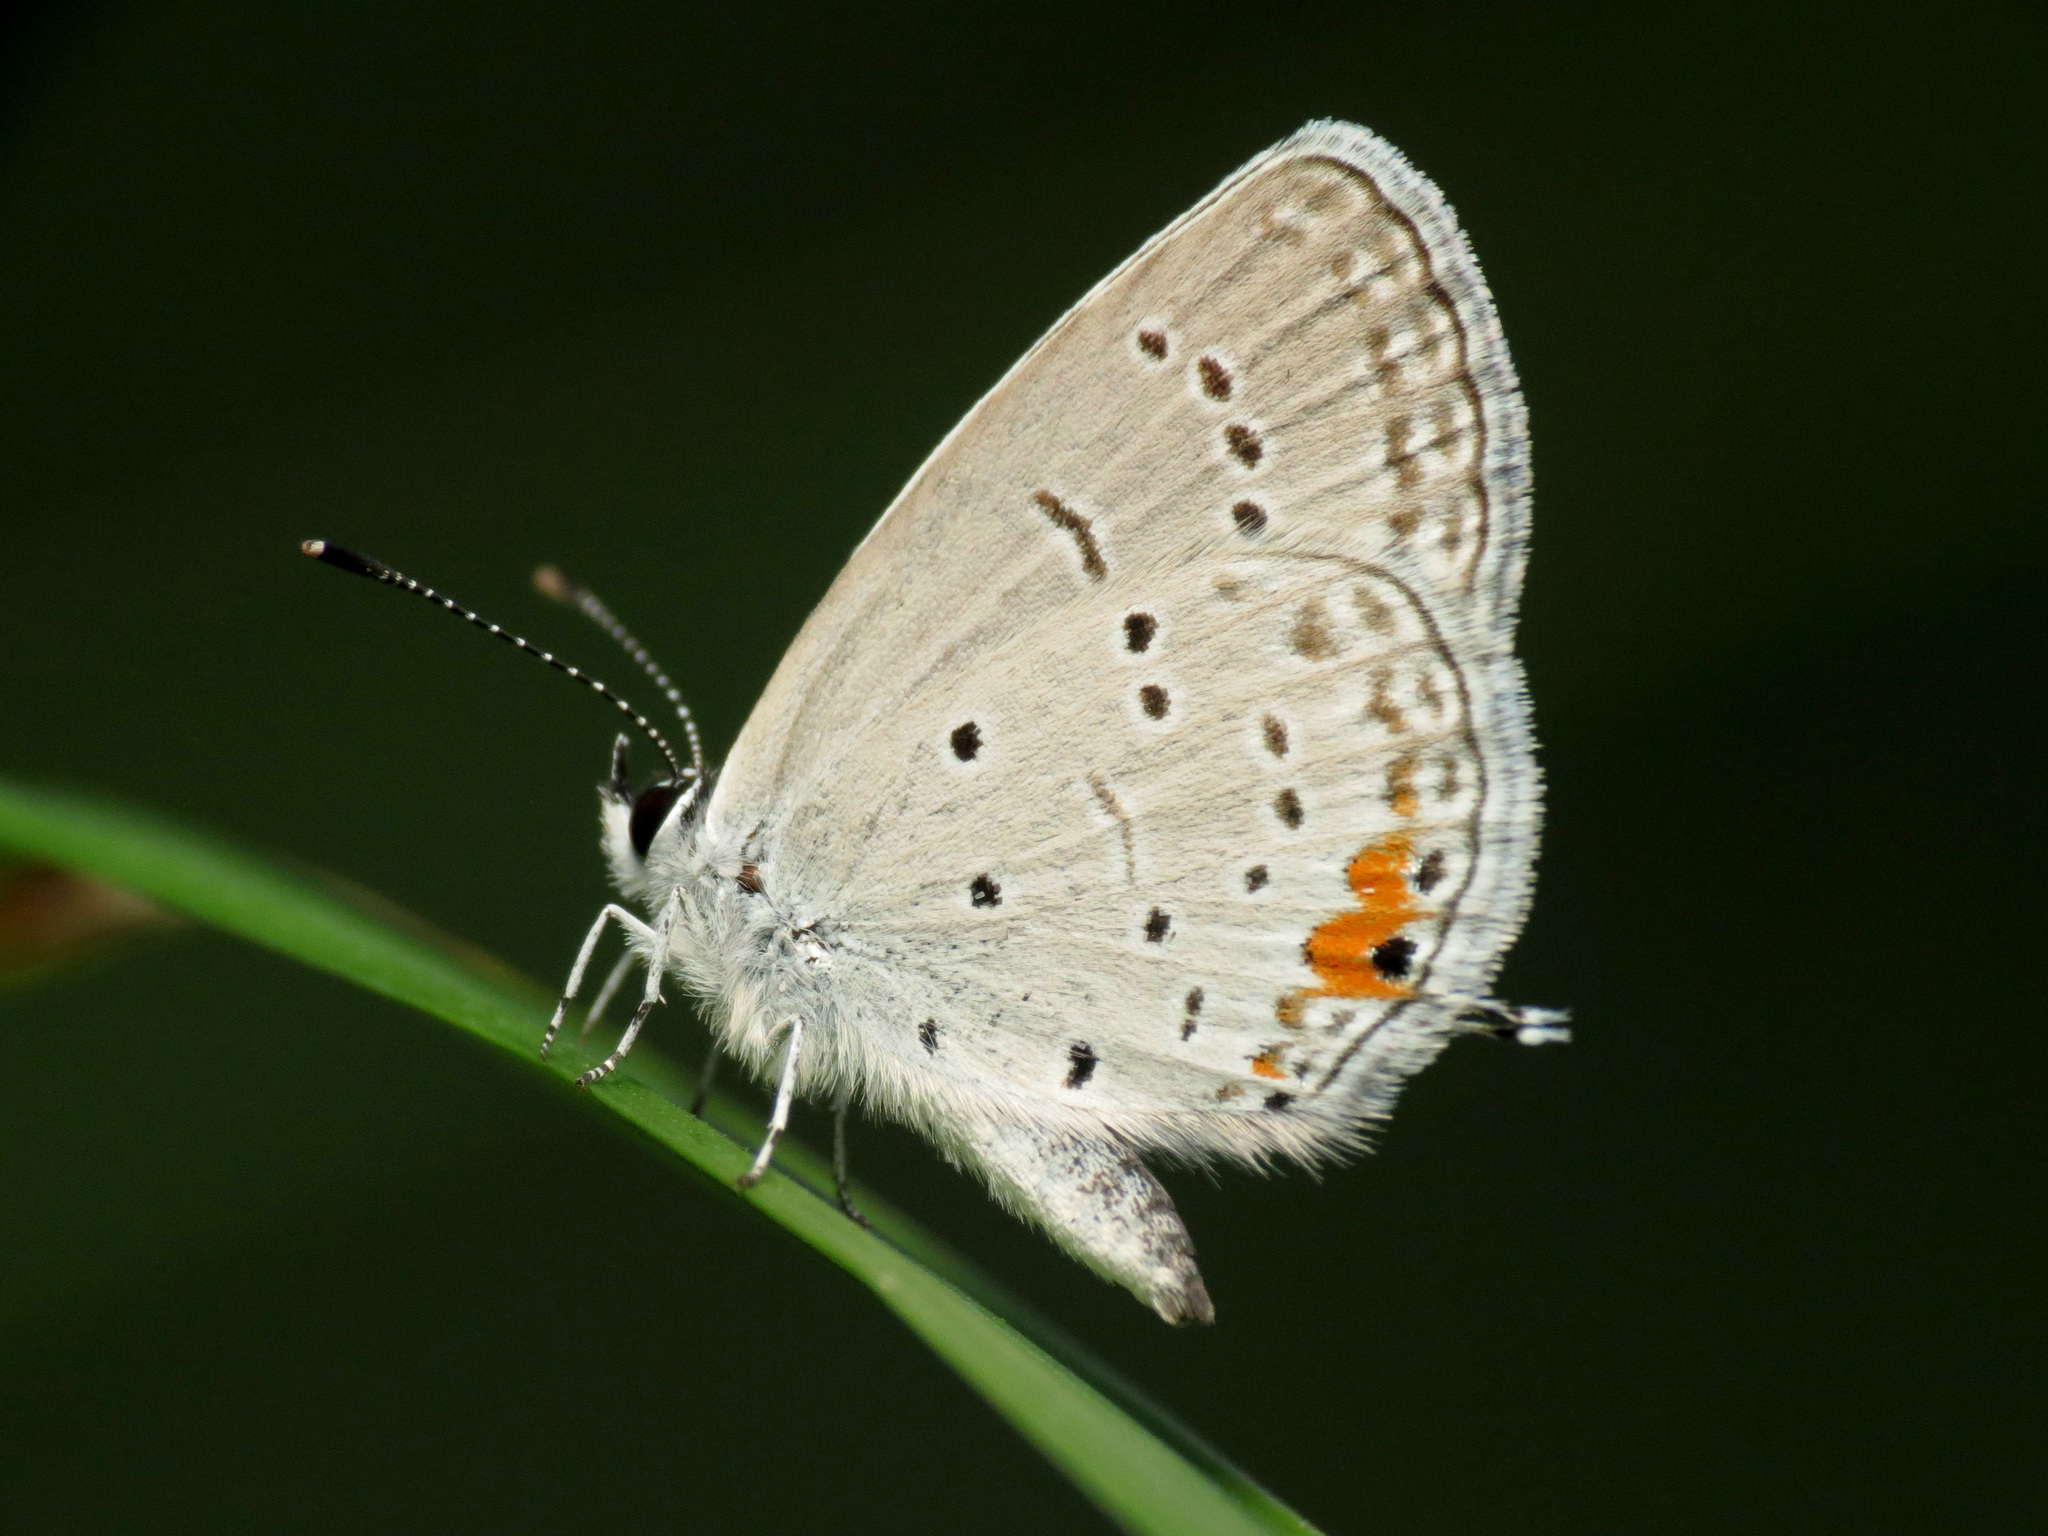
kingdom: Animalia
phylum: Arthropoda
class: Insecta
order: Lepidoptera
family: Lycaenidae
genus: Elkalyce
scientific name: Elkalyce comyntas
